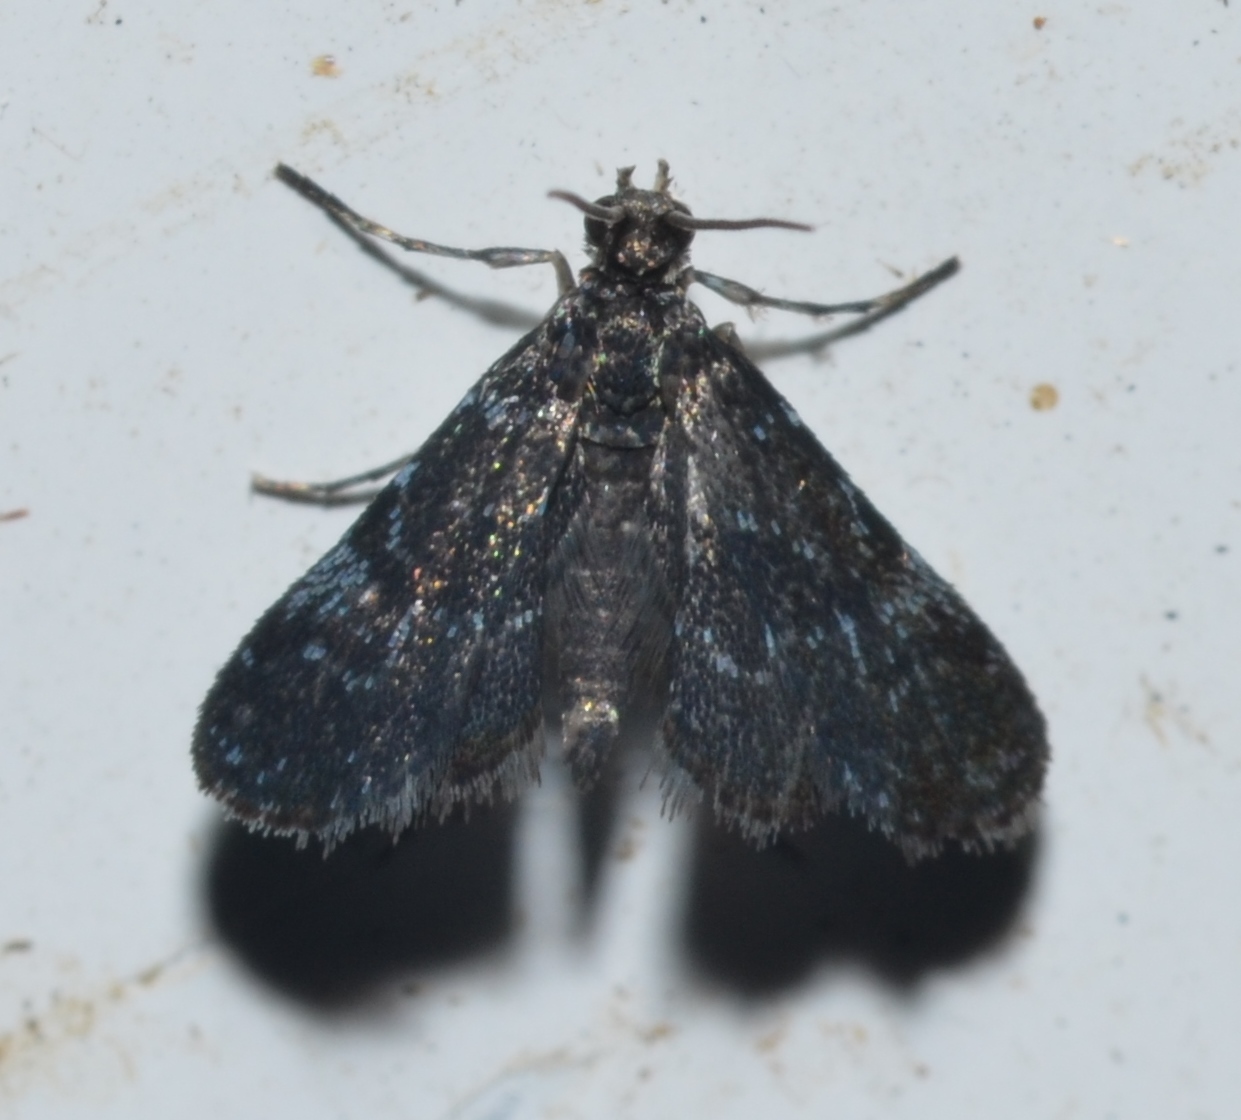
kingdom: Animalia
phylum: Arthropoda
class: Insecta
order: Lepidoptera
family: Crambidae
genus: Elophila
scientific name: Elophila tinealis
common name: Black duckweed moth
